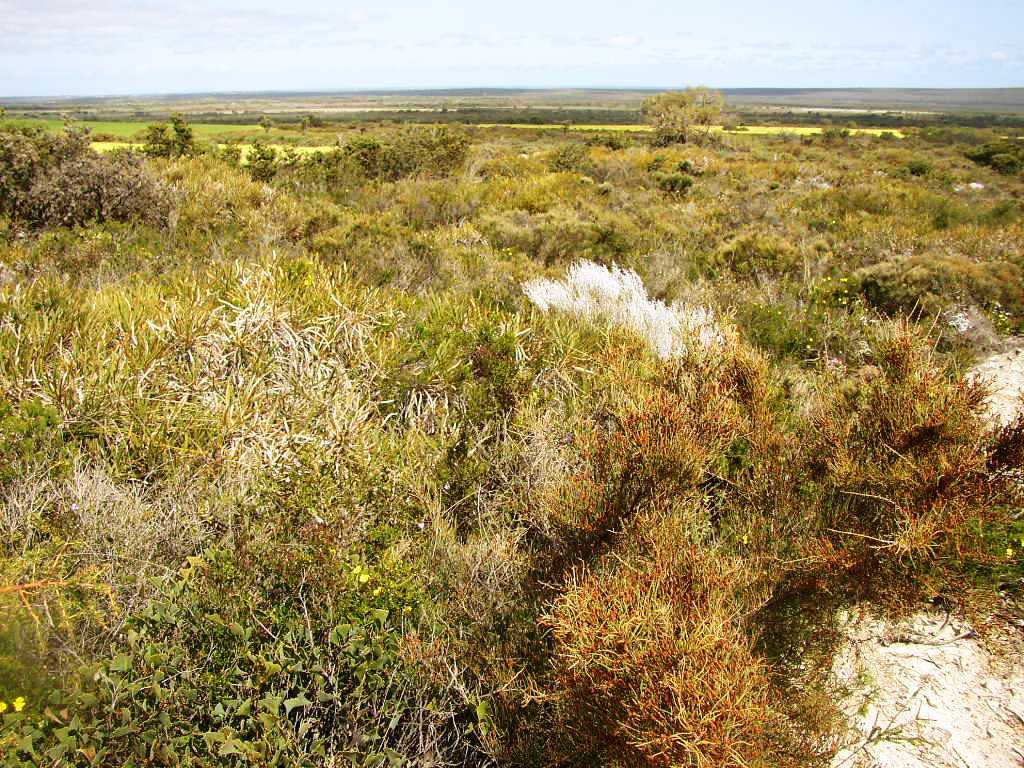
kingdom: Plantae
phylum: Tracheophyta
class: Magnoliopsida
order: Proteales
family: Proteaceae
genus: Banksia
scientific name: Banksia dallanneyi
